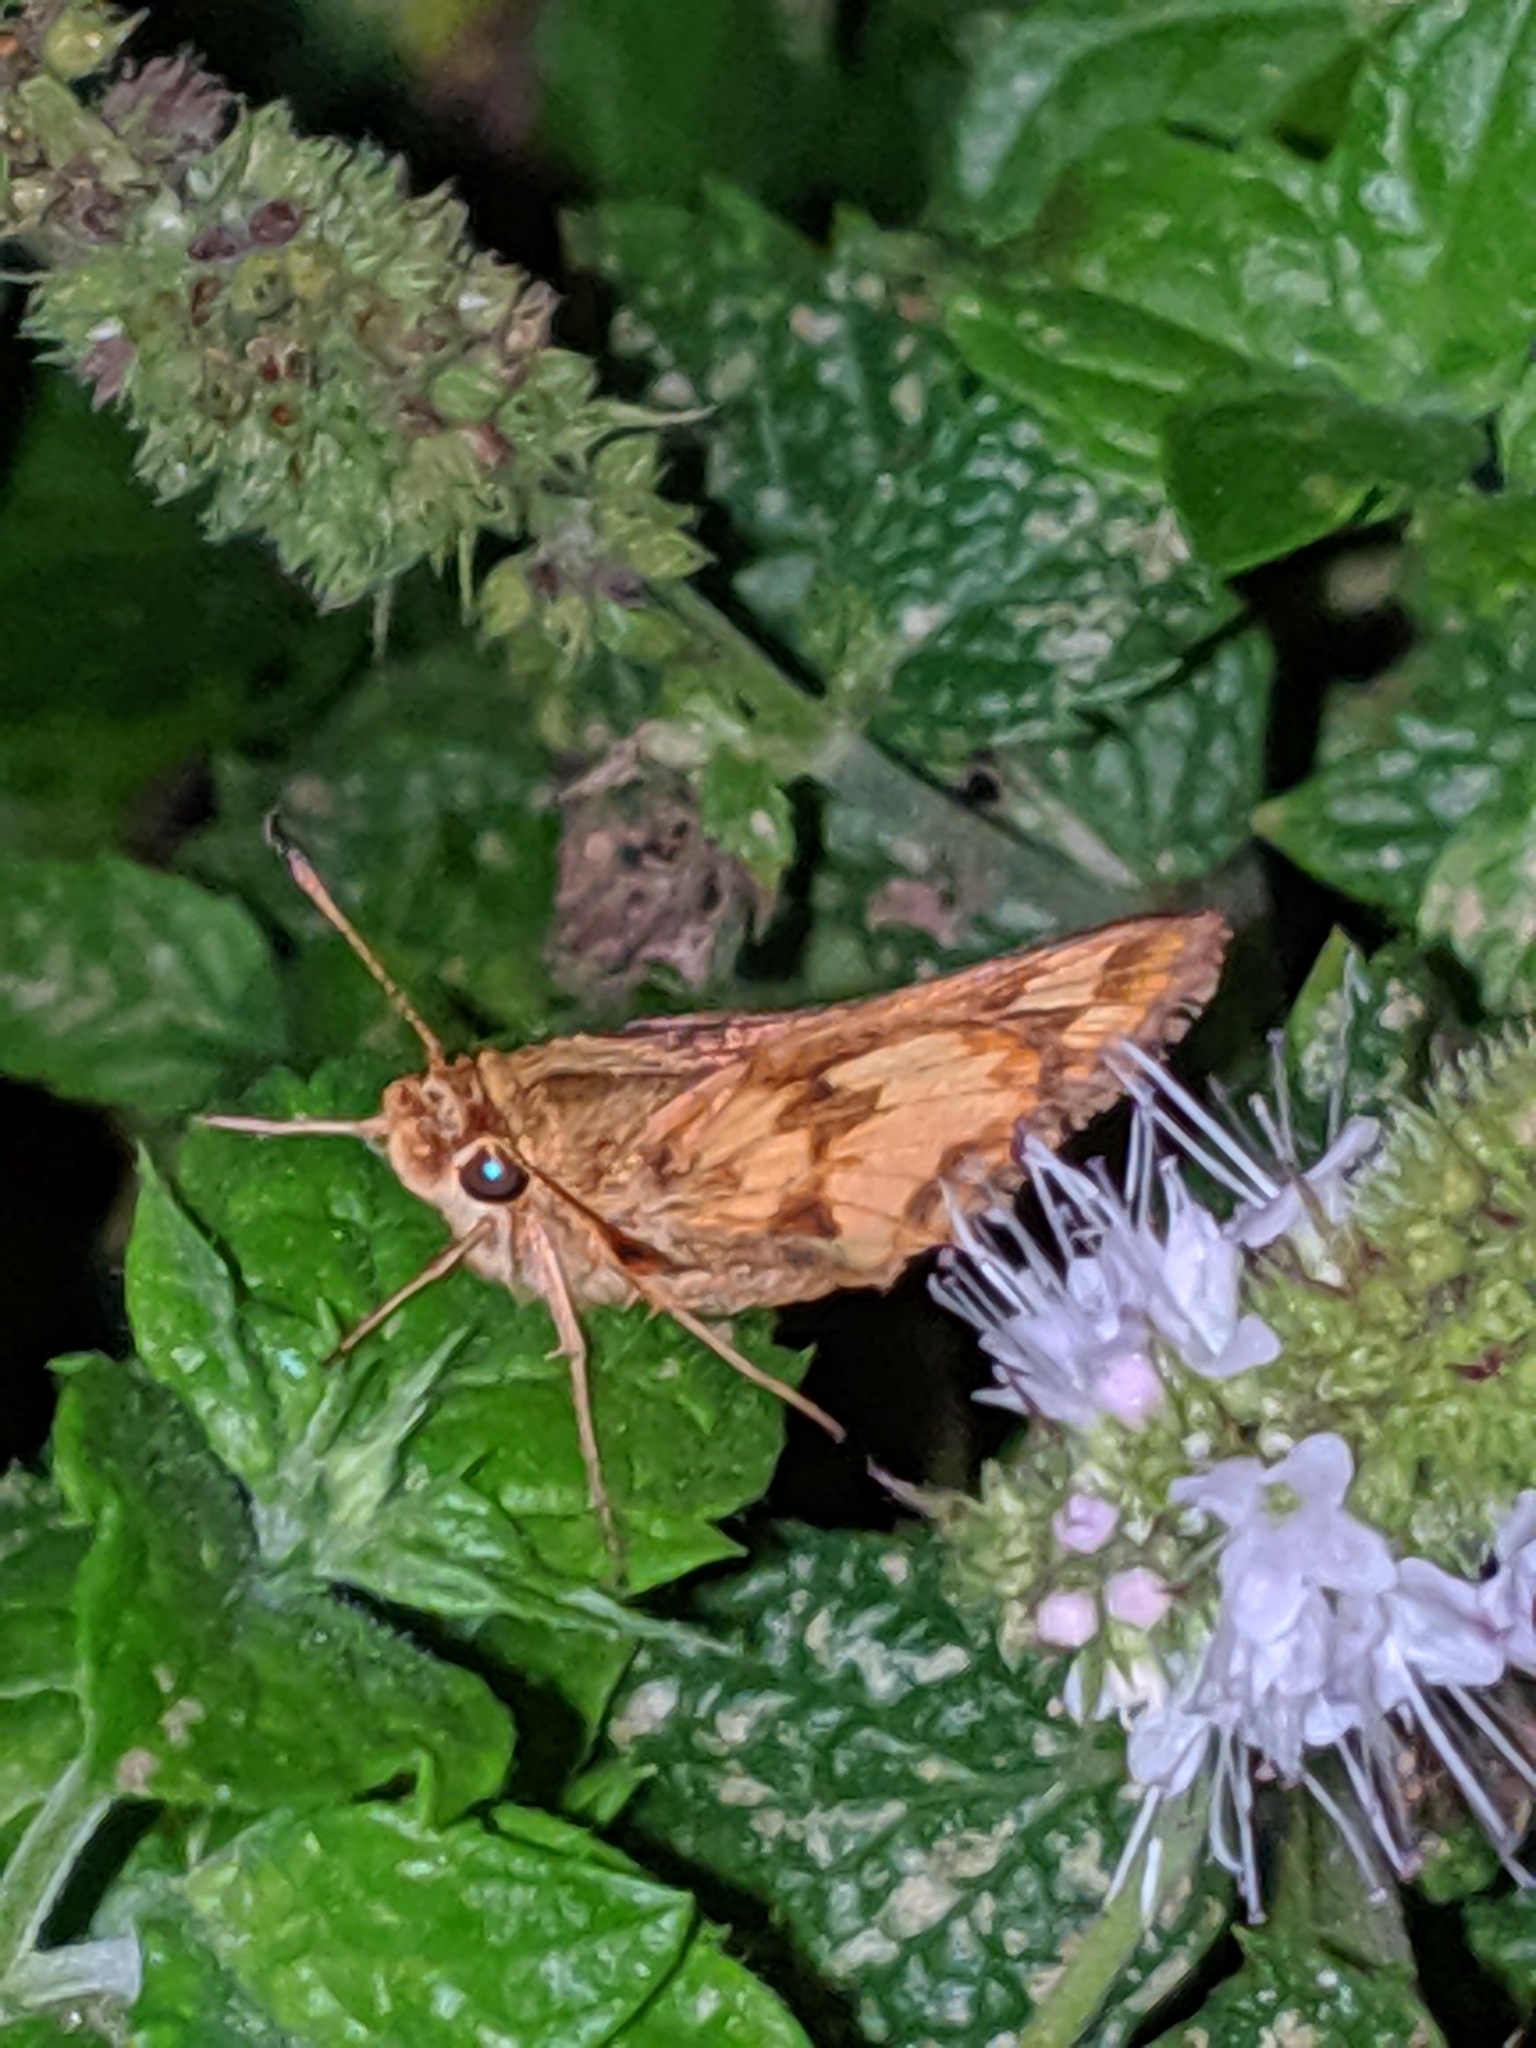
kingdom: Animalia
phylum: Arthropoda
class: Insecta
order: Lepidoptera
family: Hesperiidae
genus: Polites
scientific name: Polites coras
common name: Peck's skipper
